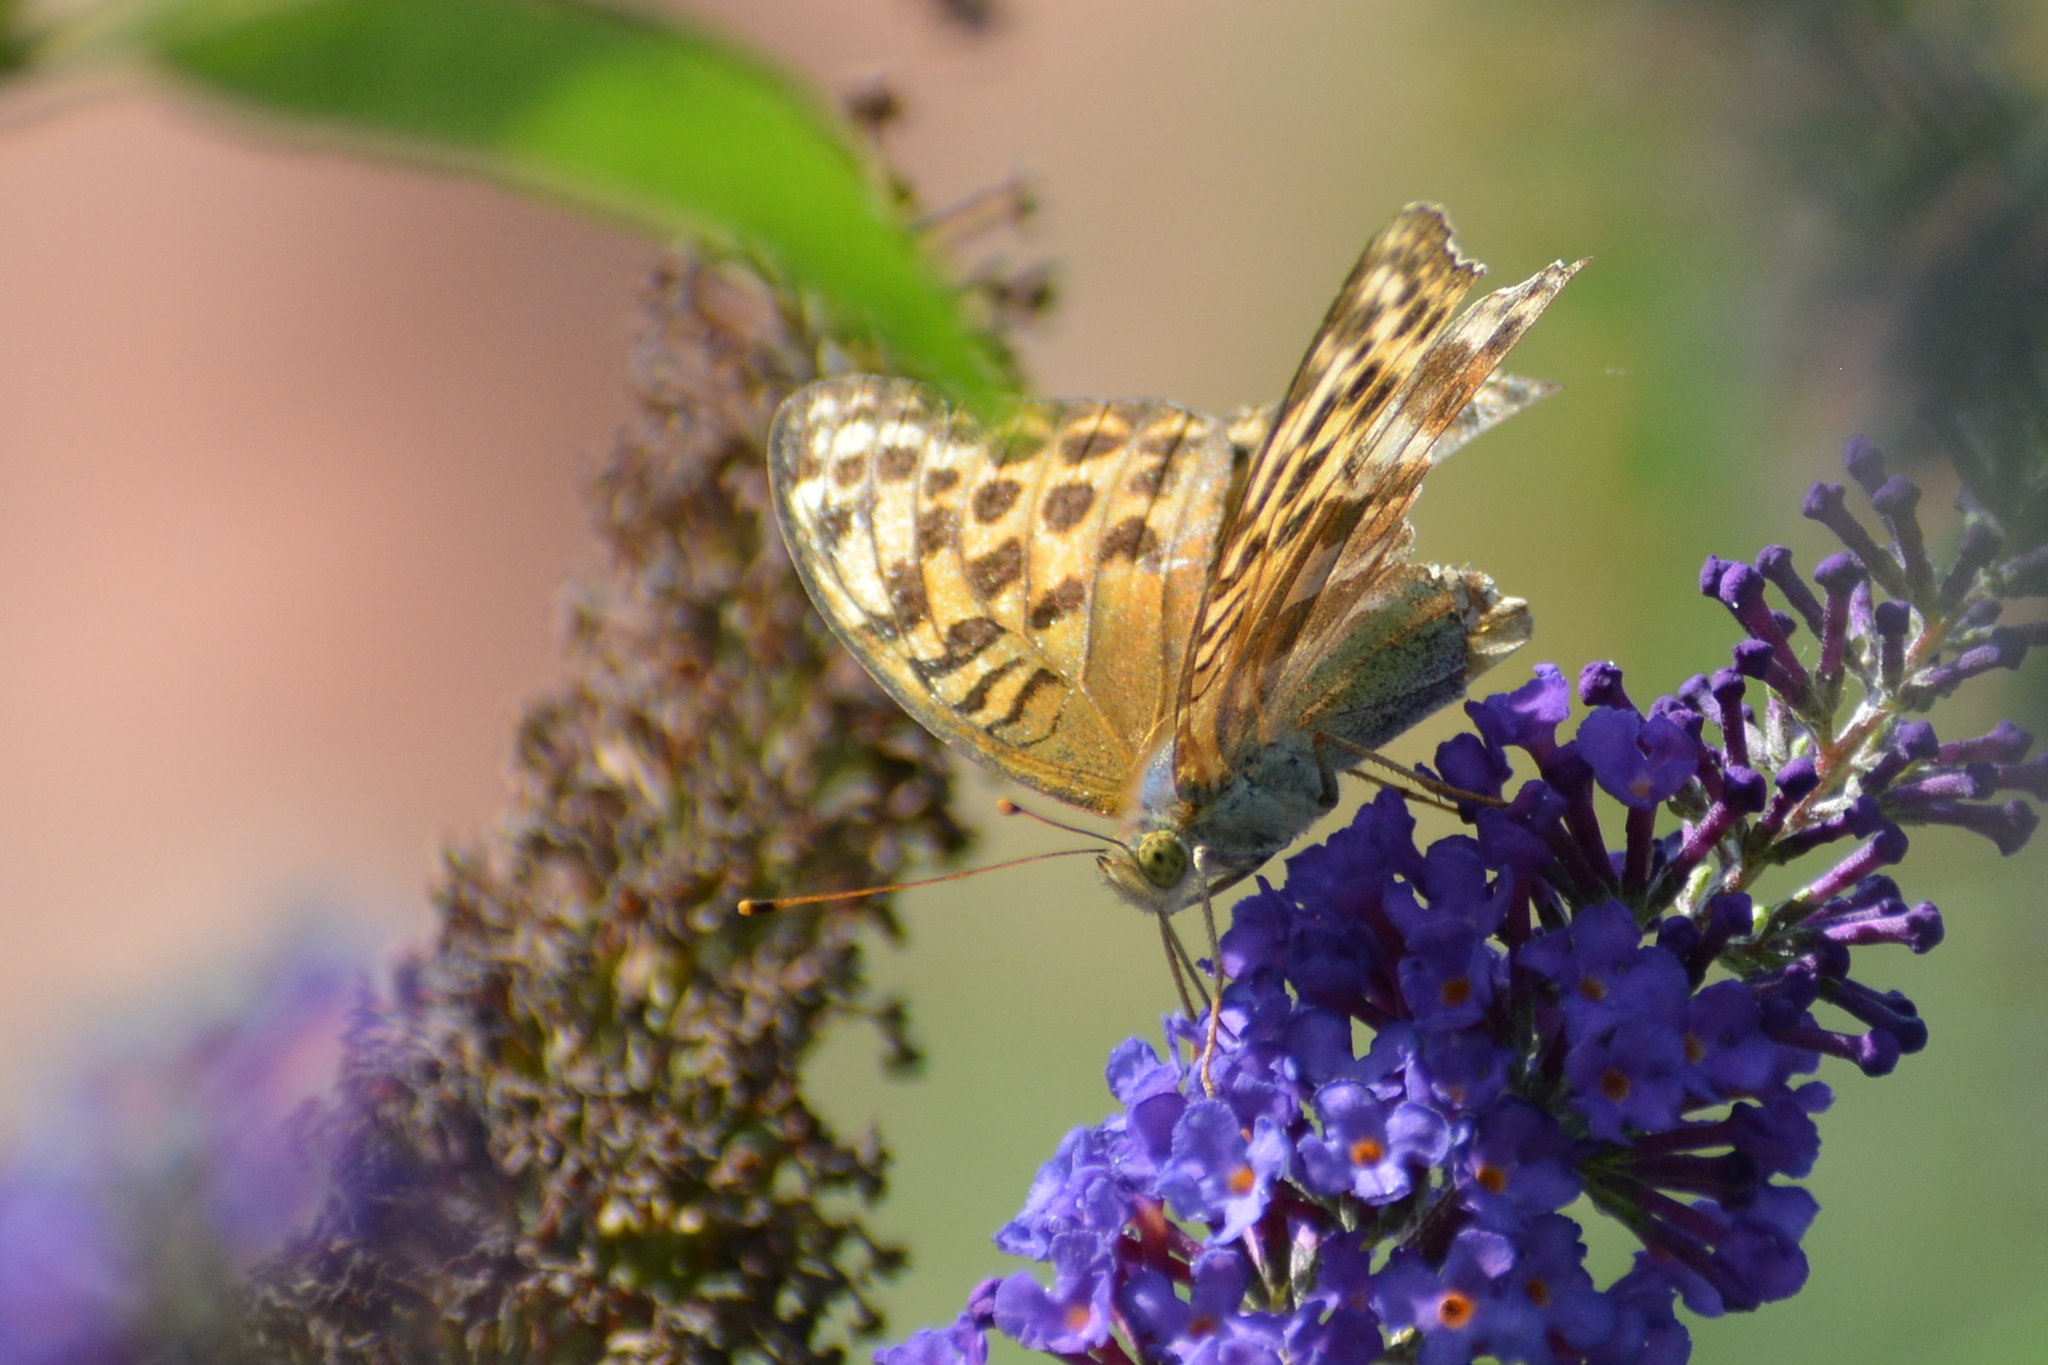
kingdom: Animalia
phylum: Arthropoda
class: Insecta
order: Lepidoptera
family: Nymphalidae
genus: Argynnis
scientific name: Argynnis paphia
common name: Silver-washed fritillary
